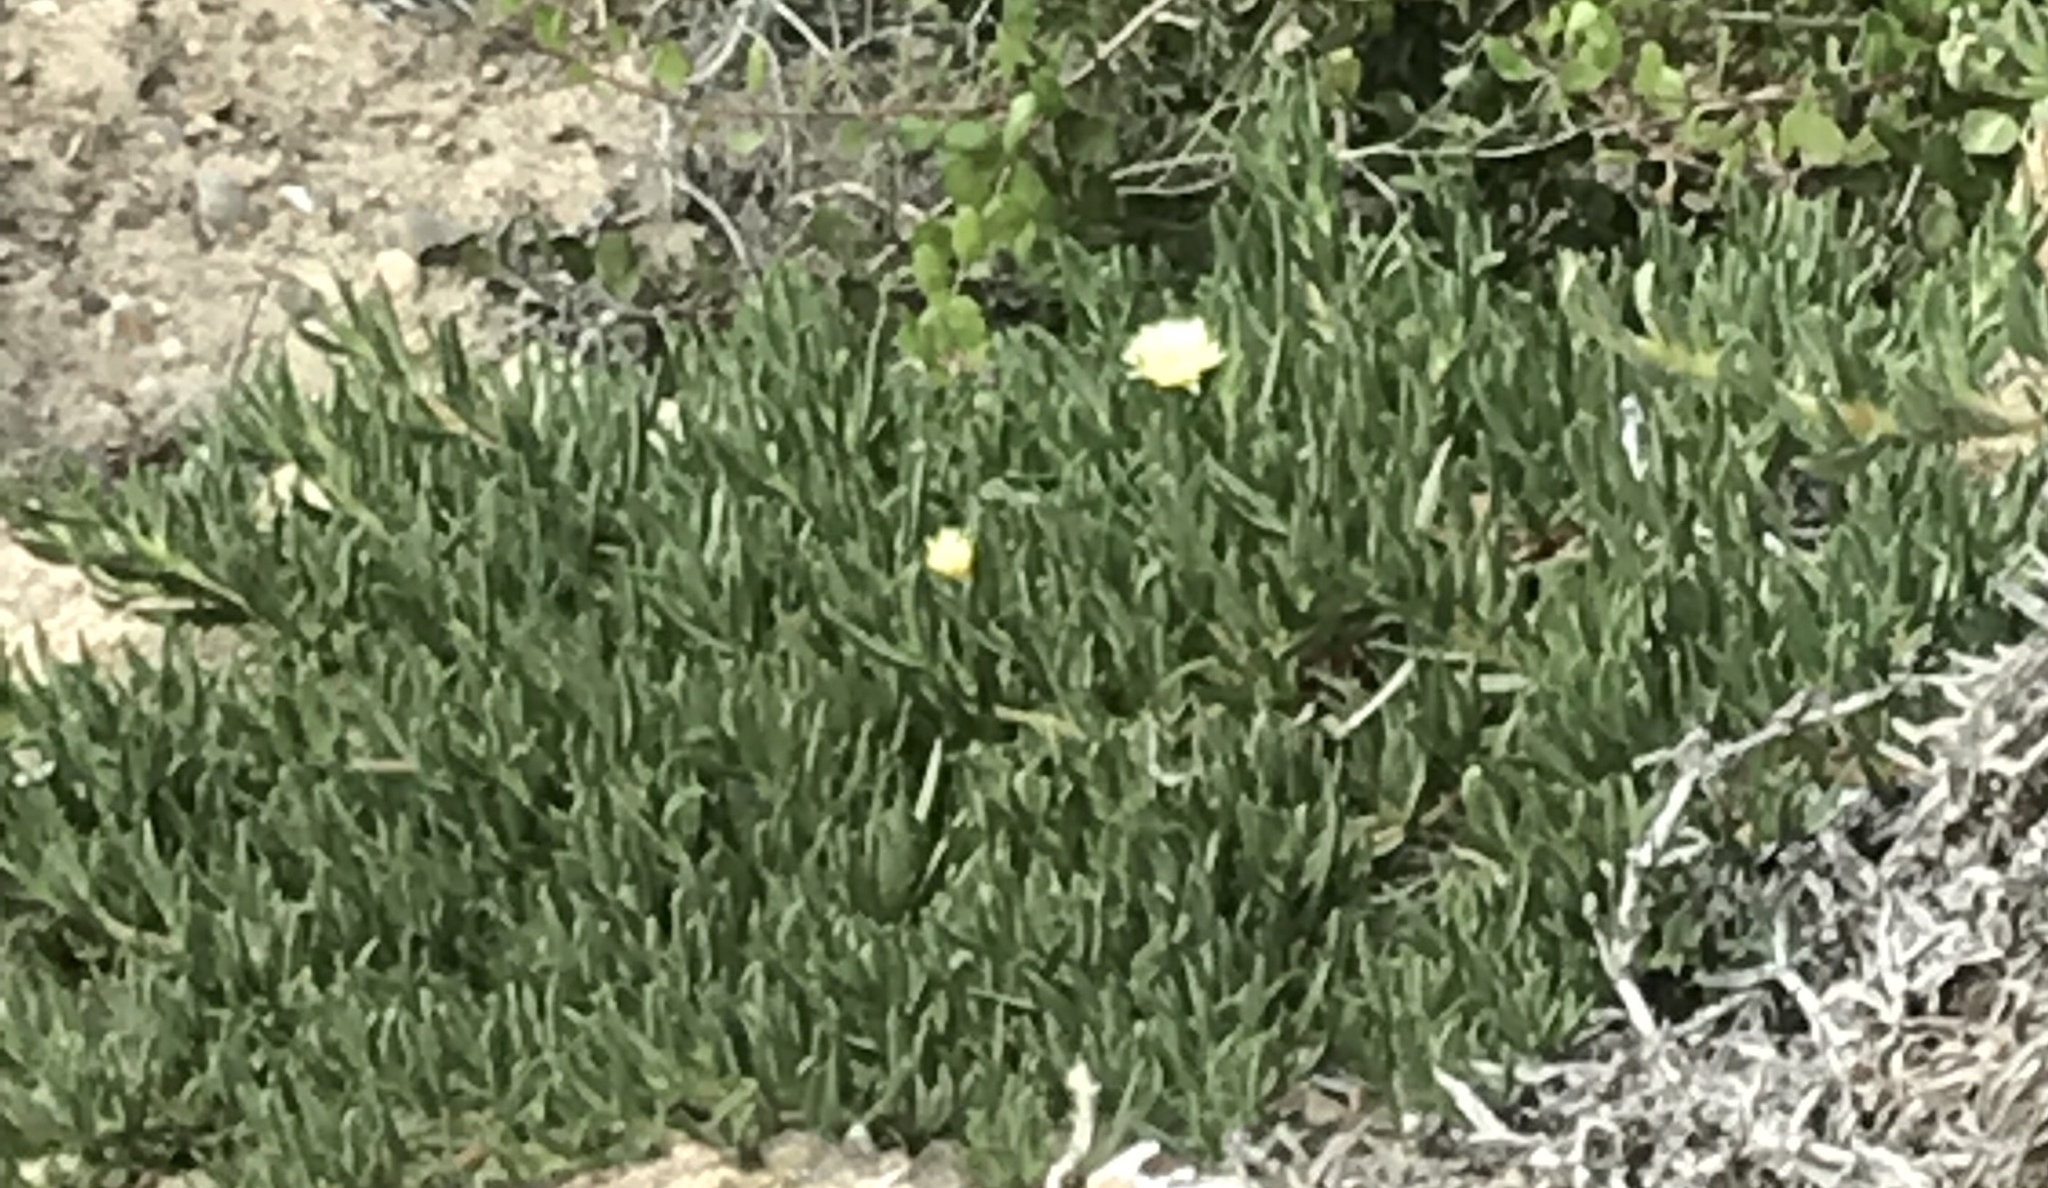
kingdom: Plantae
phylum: Tracheophyta
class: Magnoliopsida
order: Caryophyllales
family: Aizoaceae
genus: Carpobrotus
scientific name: Carpobrotus edulis
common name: Hottentot-fig
